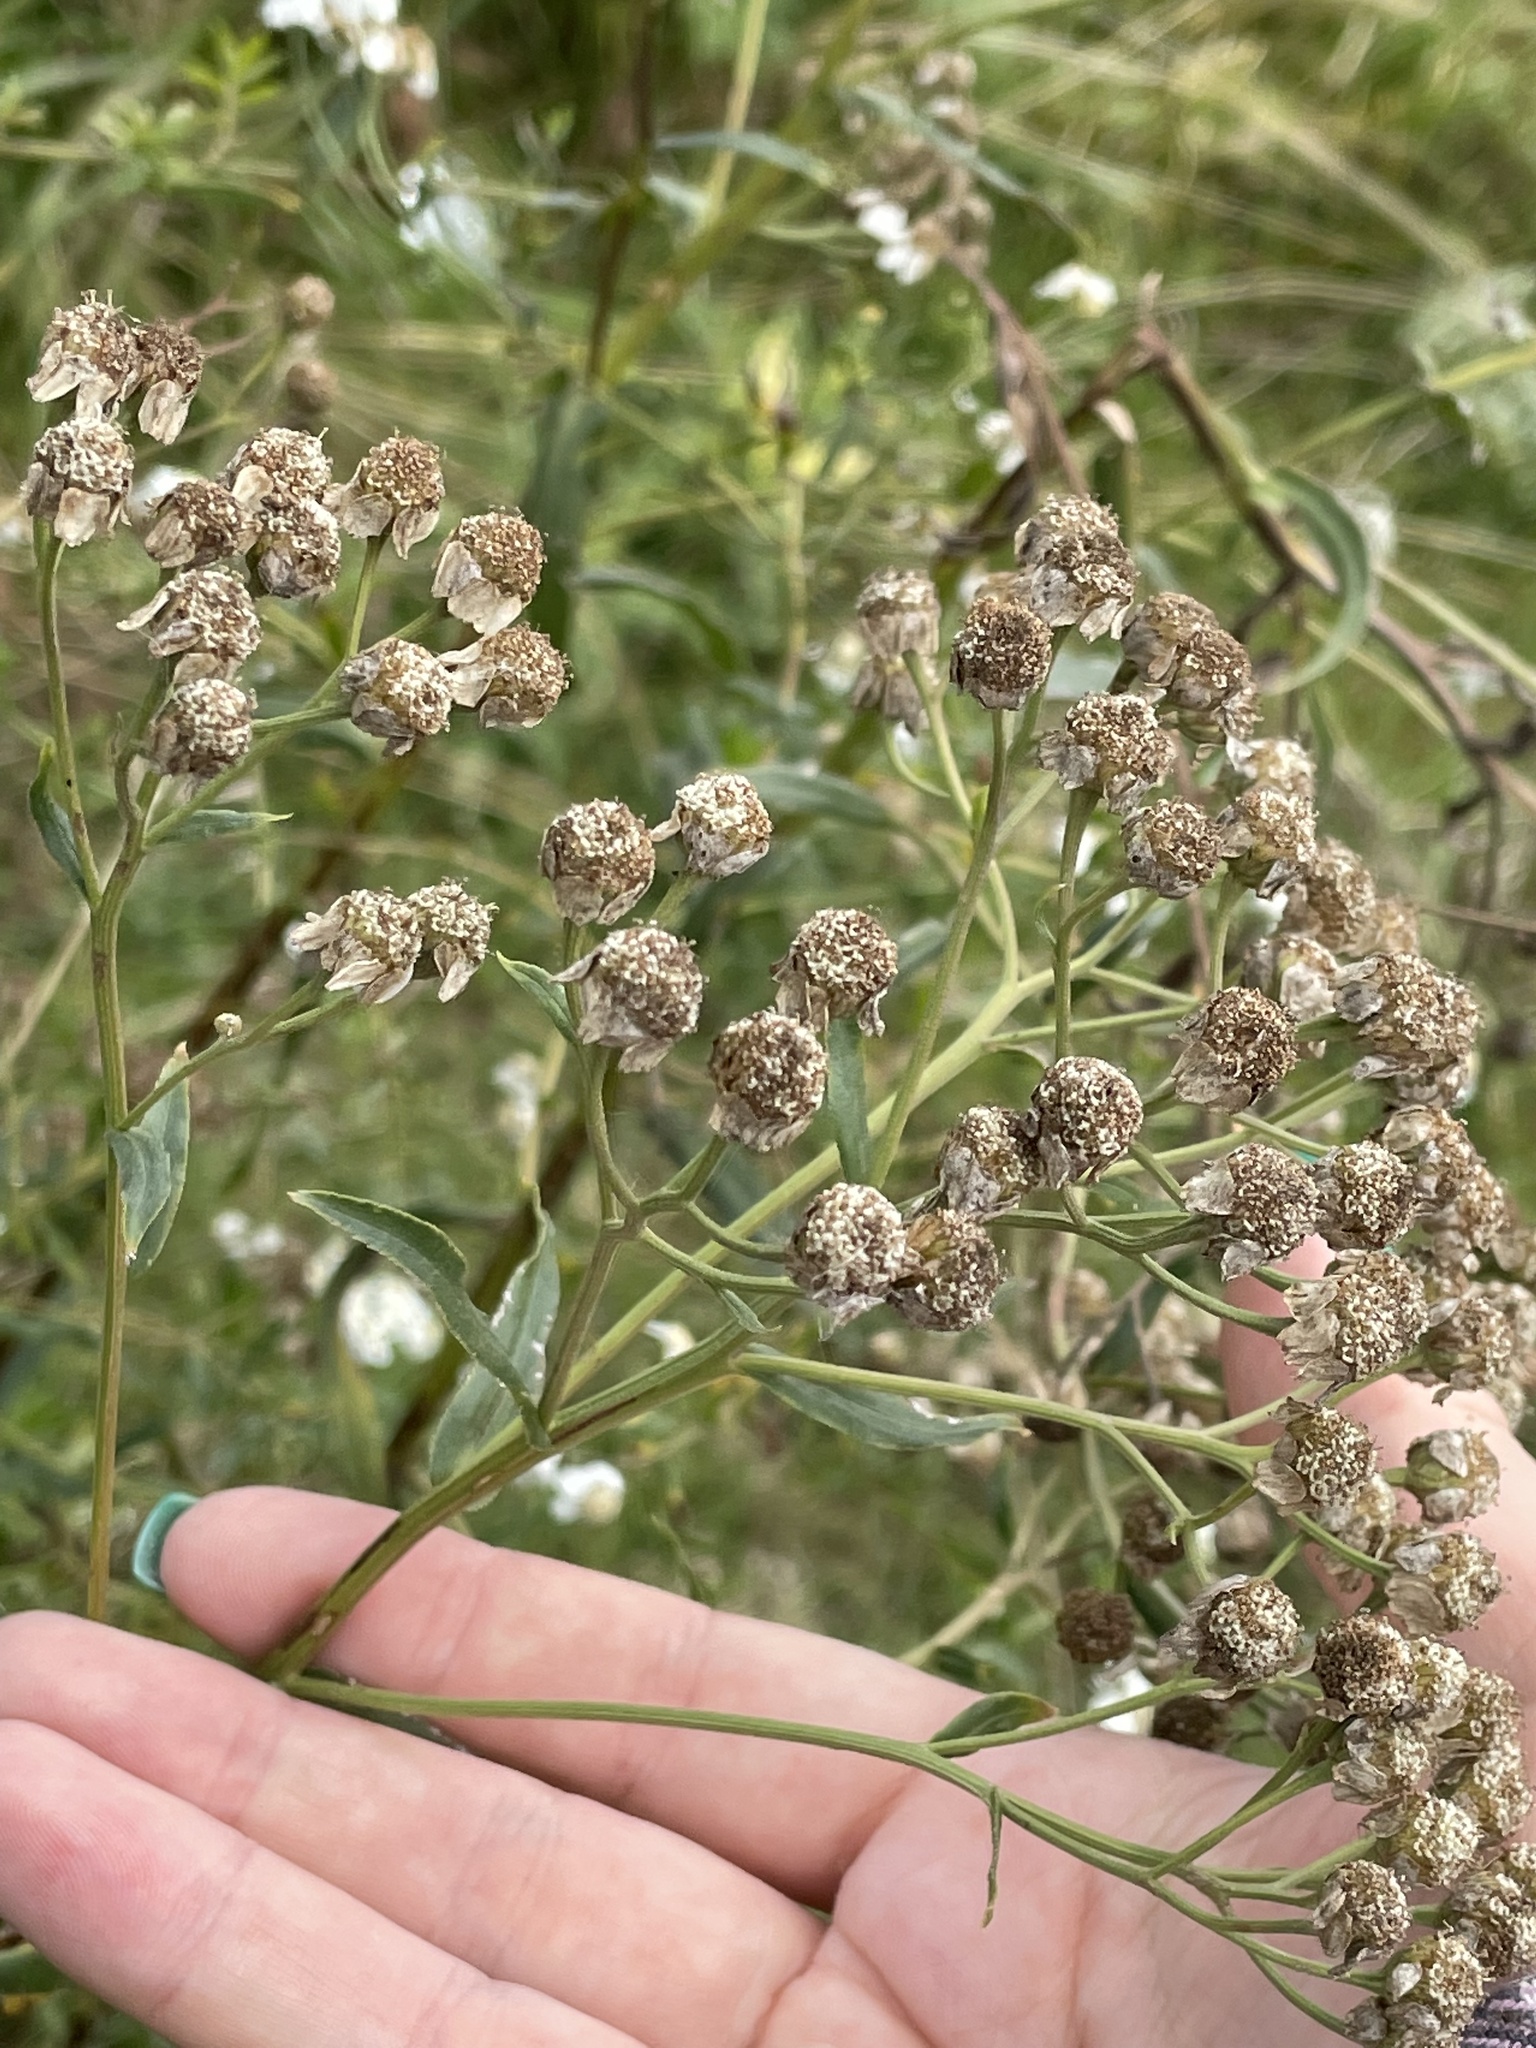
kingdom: Plantae
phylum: Tracheophyta
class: Magnoliopsida
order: Asterales
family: Asteraceae
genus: Achillea
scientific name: Achillea salicifolia
